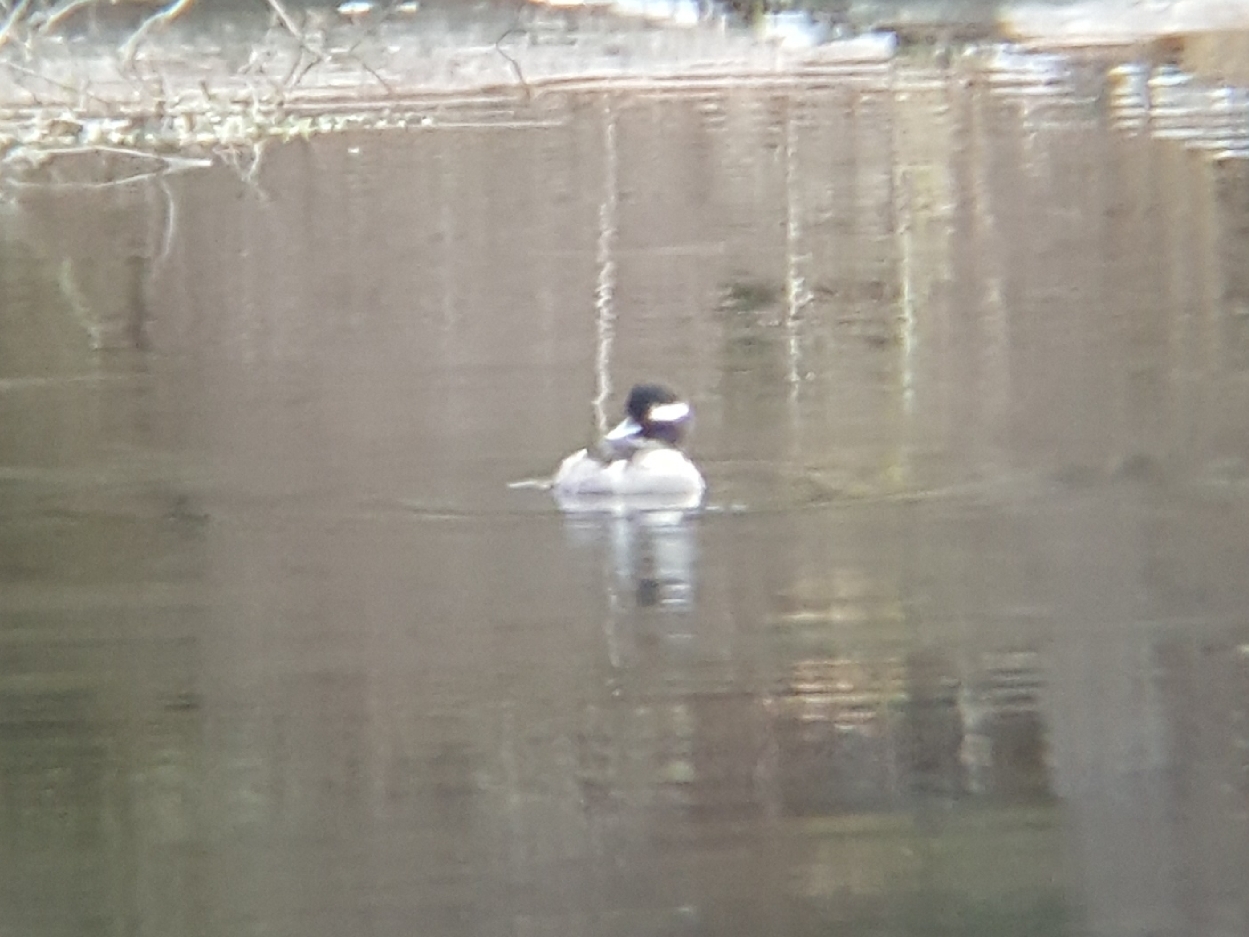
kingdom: Animalia
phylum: Chordata
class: Aves
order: Anseriformes
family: Anatidae
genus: Bucephala
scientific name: Bucephala albeola
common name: Bufflehead
